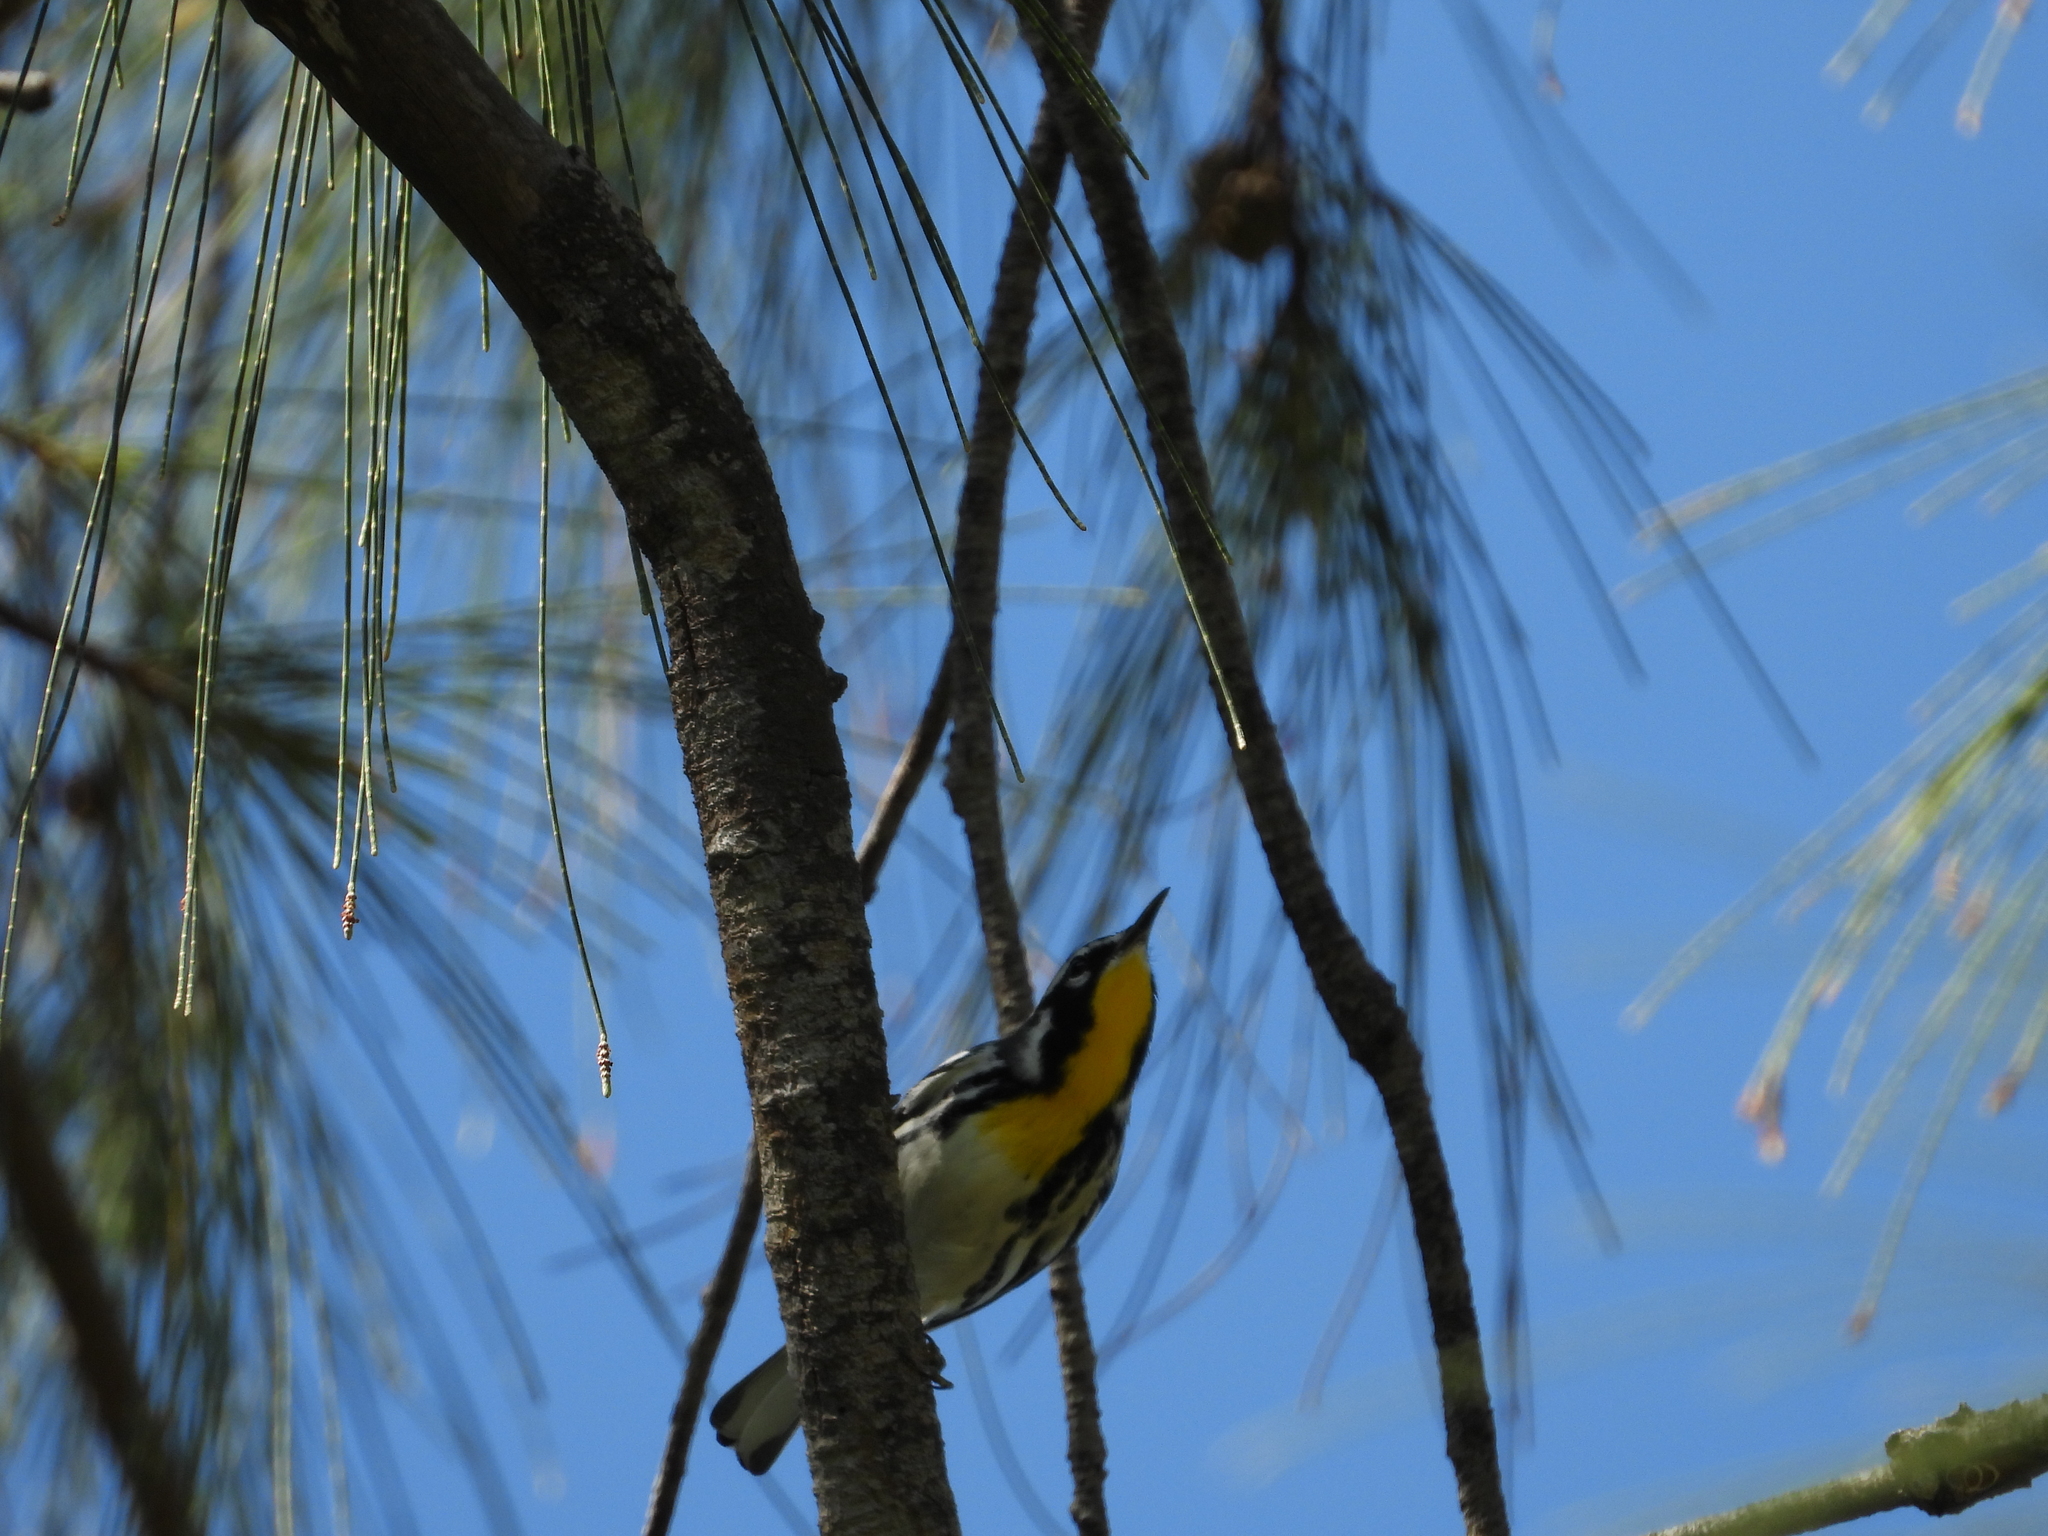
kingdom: Animalia
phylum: Chordata
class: Aves
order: Passeriformes
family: Parulidae
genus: Setophaga
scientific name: Setophaga dominica
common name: Yellow-throated warbler
